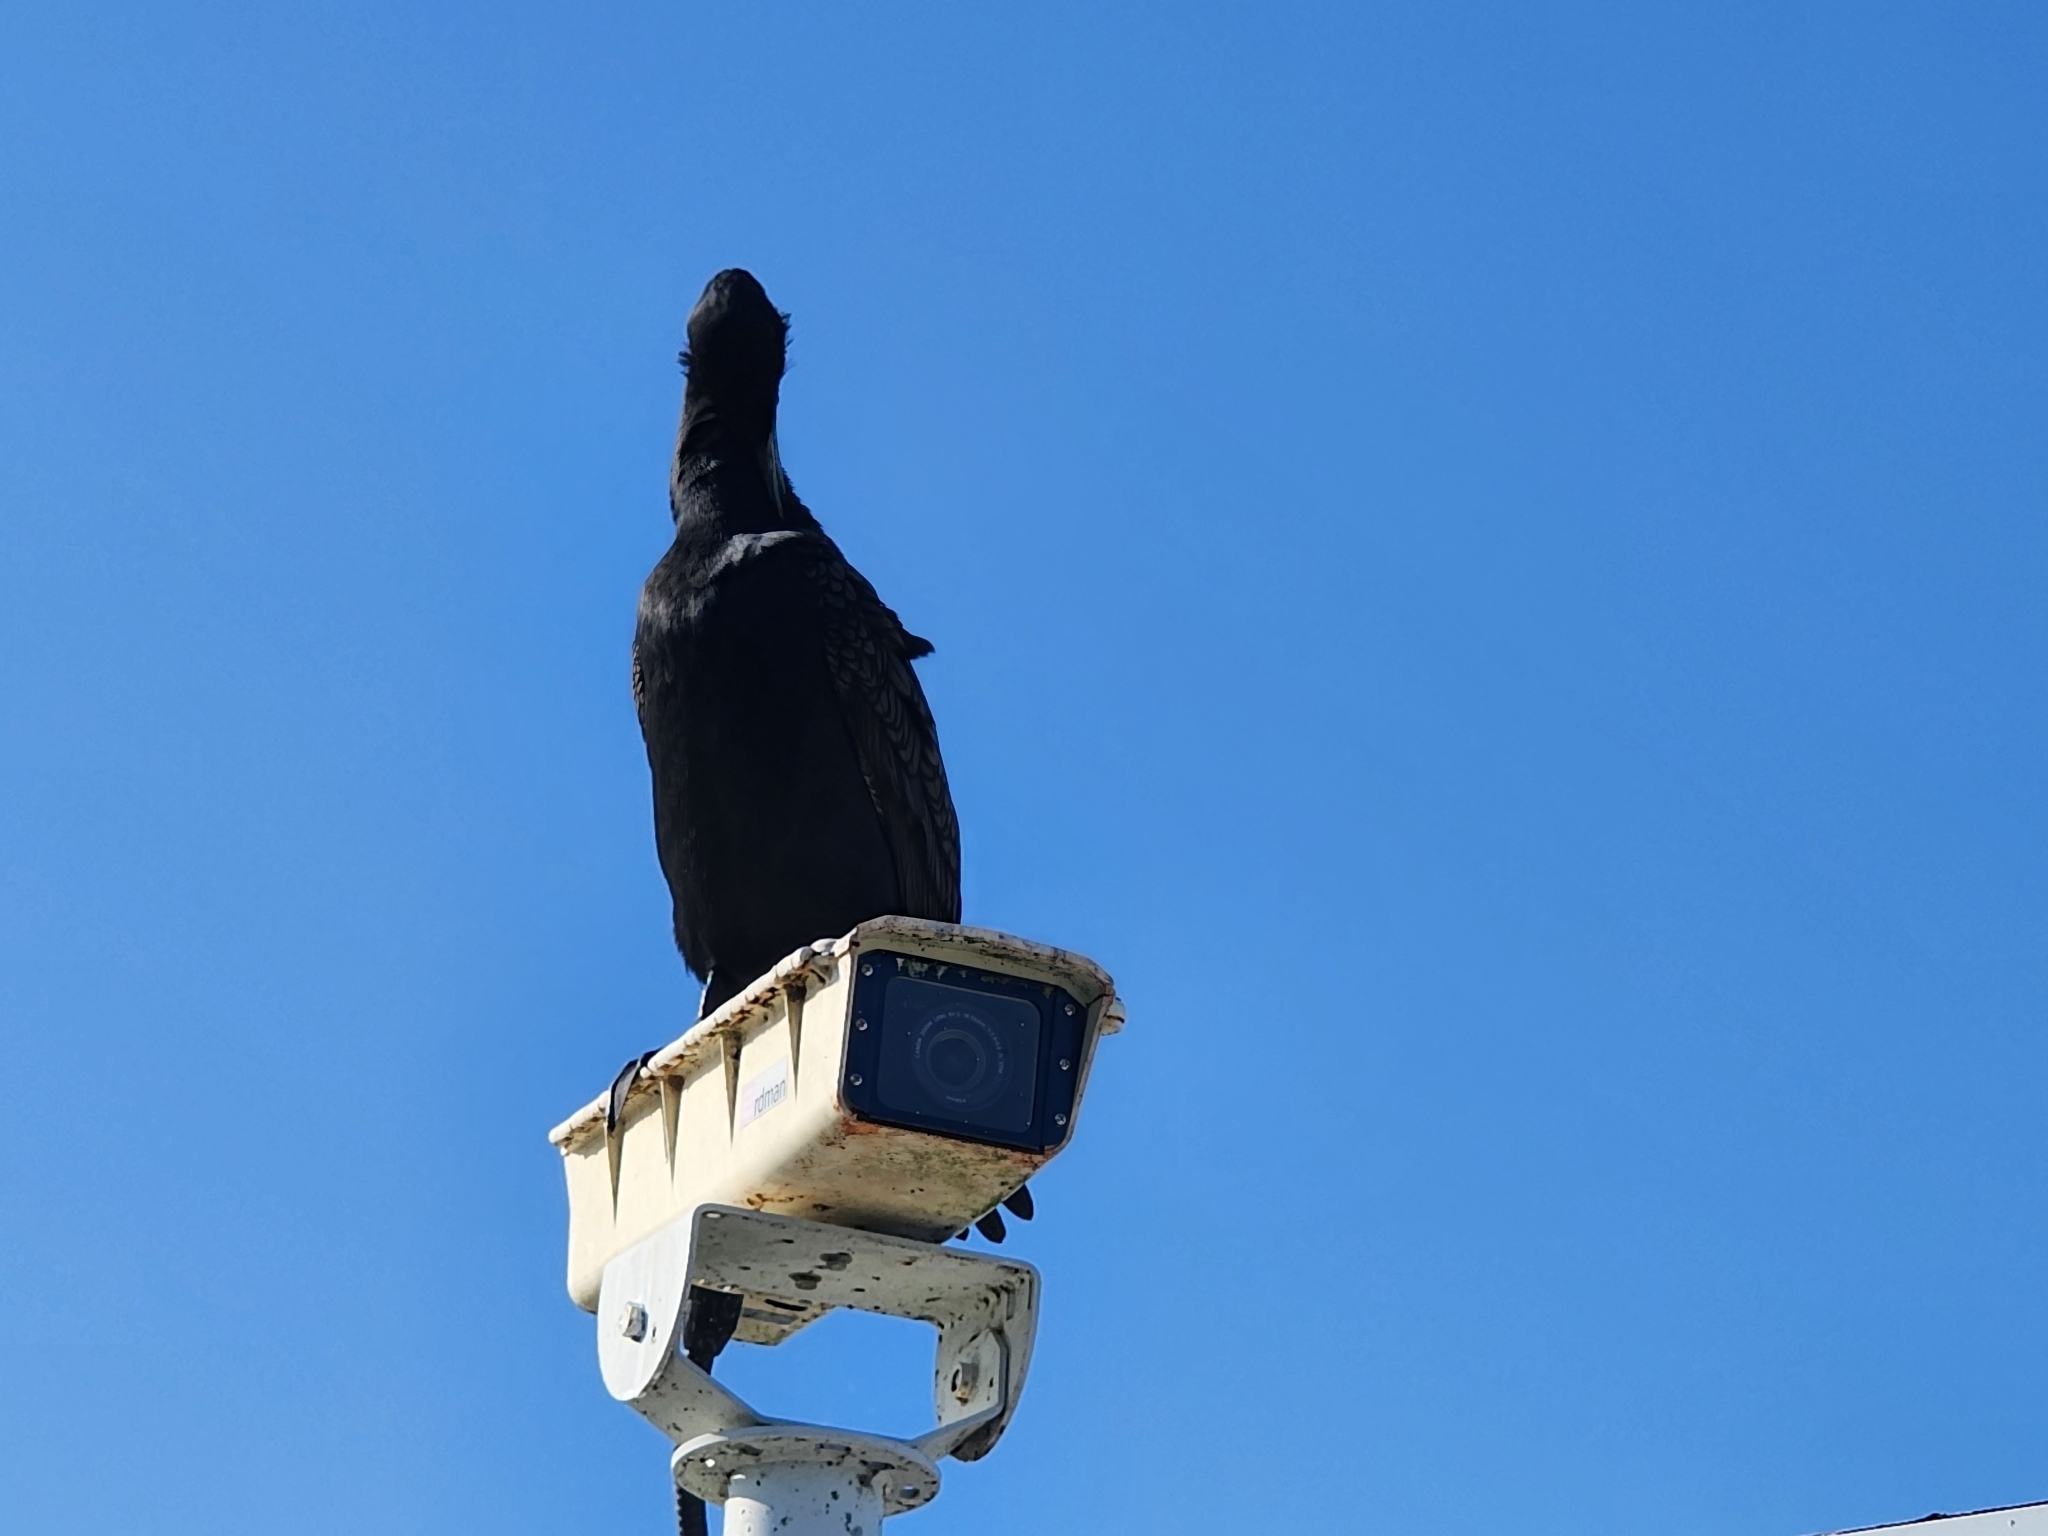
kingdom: Animalia
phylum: Chordata
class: Aves
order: Suliformes
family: Phalacrocoracidae
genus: Phalacrocorax
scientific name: Phalacrocorax auritus
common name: Double-crested cormorant
